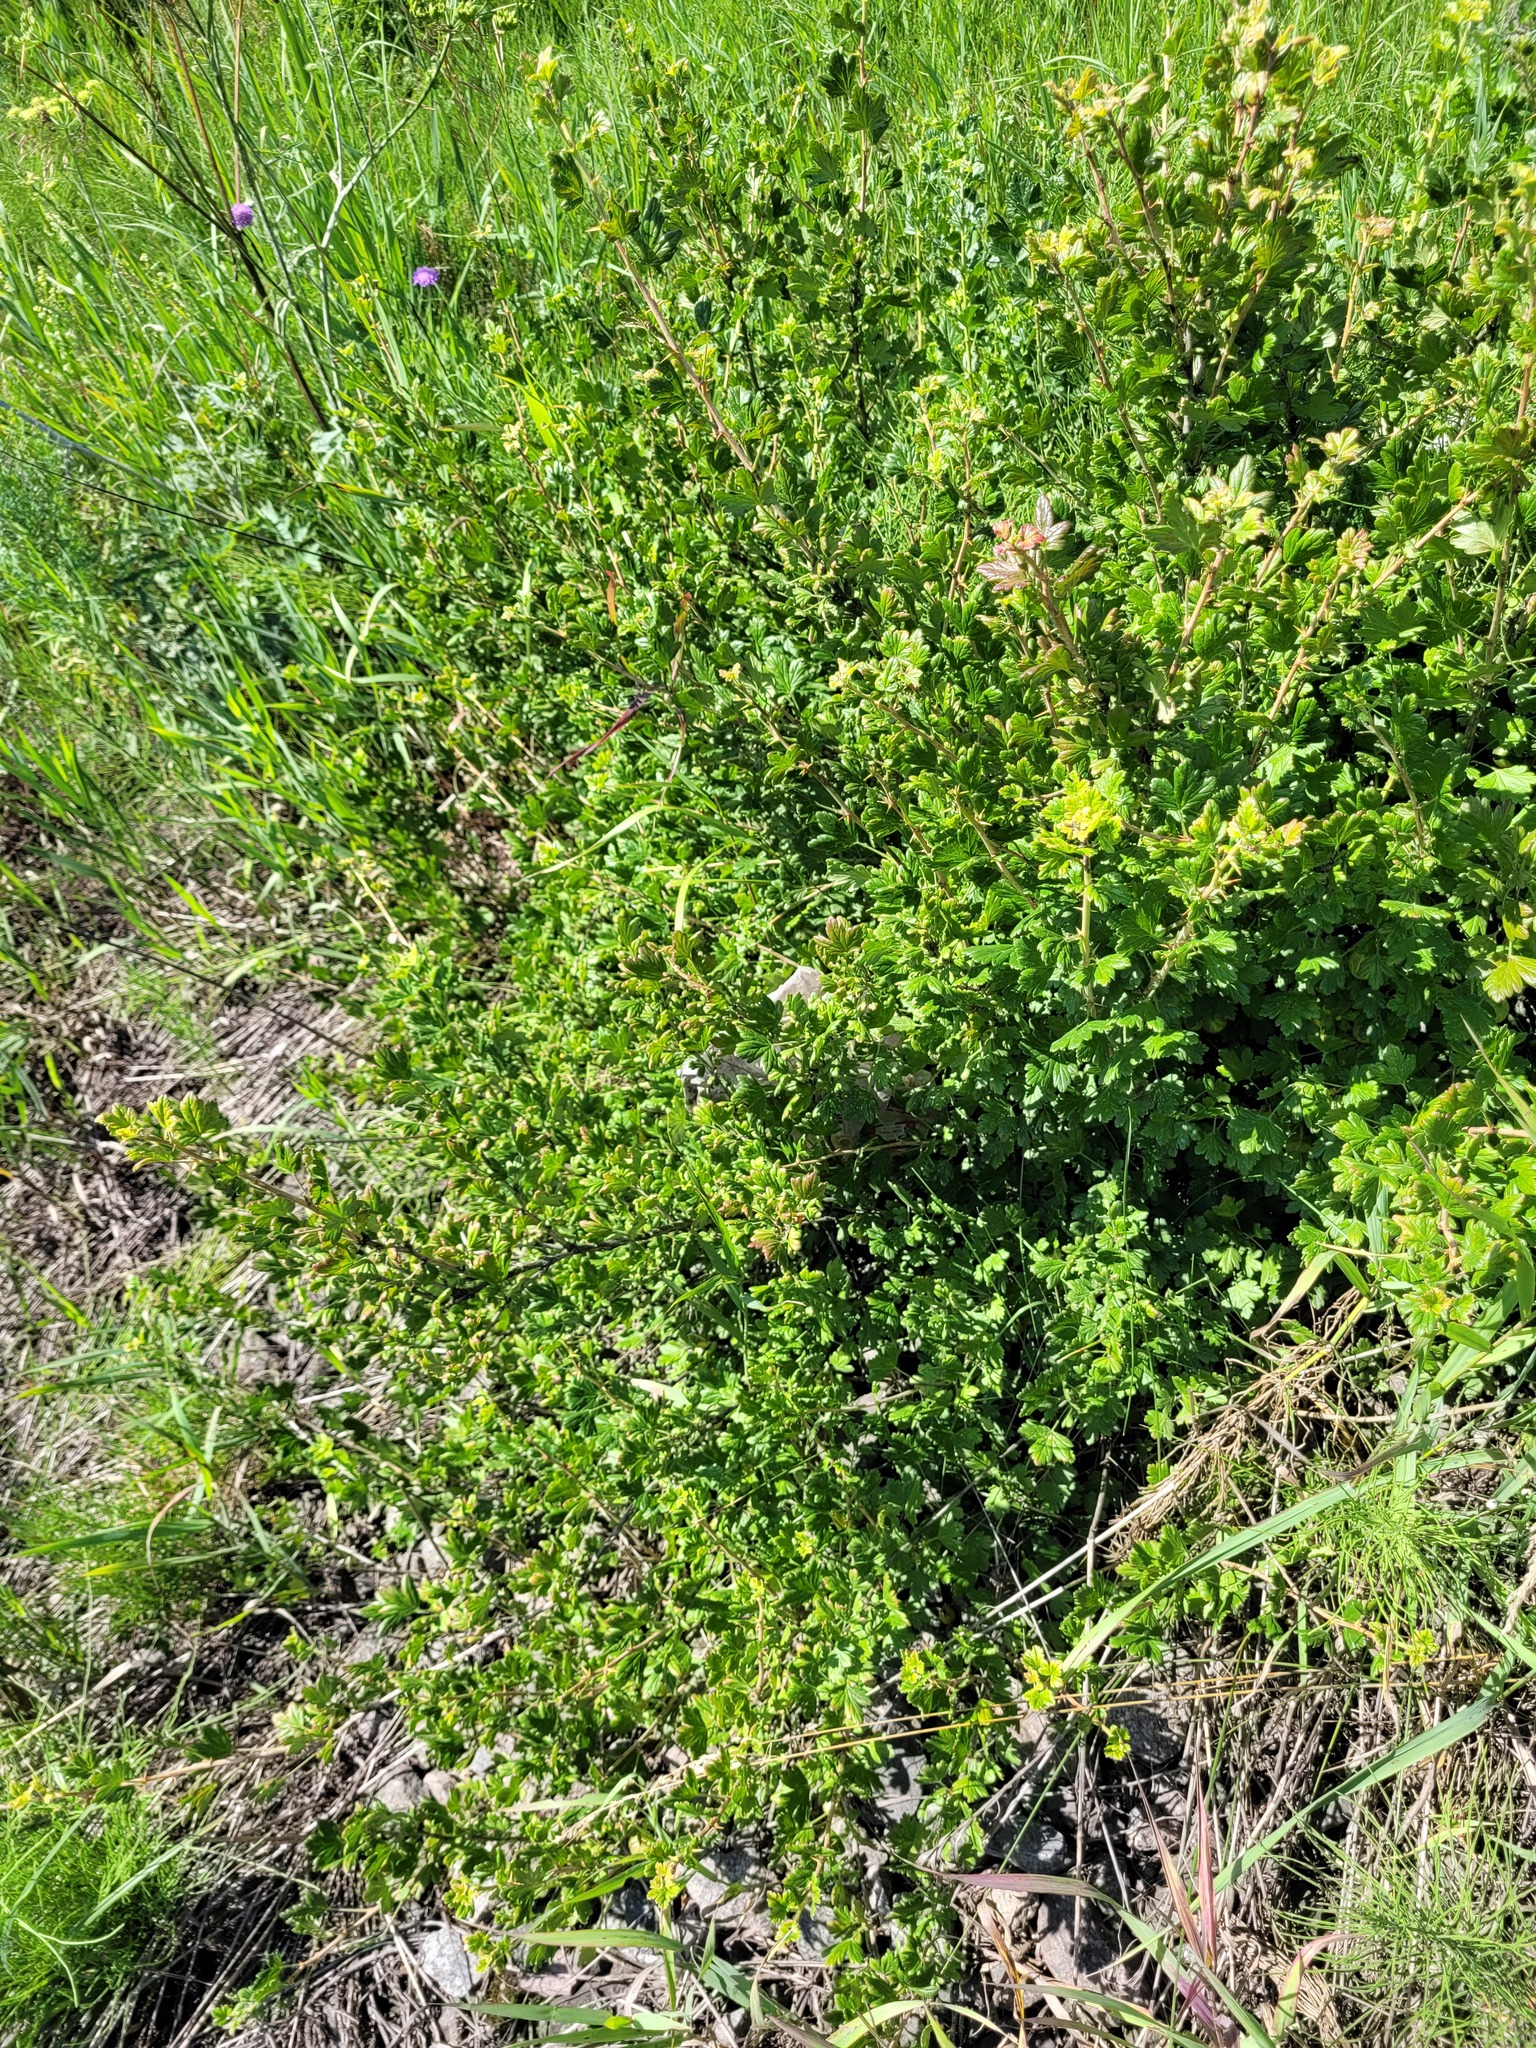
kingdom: Plantae
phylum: Tracheophyta
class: Magnoliopsida
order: Saxifragales
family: Grossulariaceae
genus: Ribes
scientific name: Ribes uva-crispa
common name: Gooseberry
